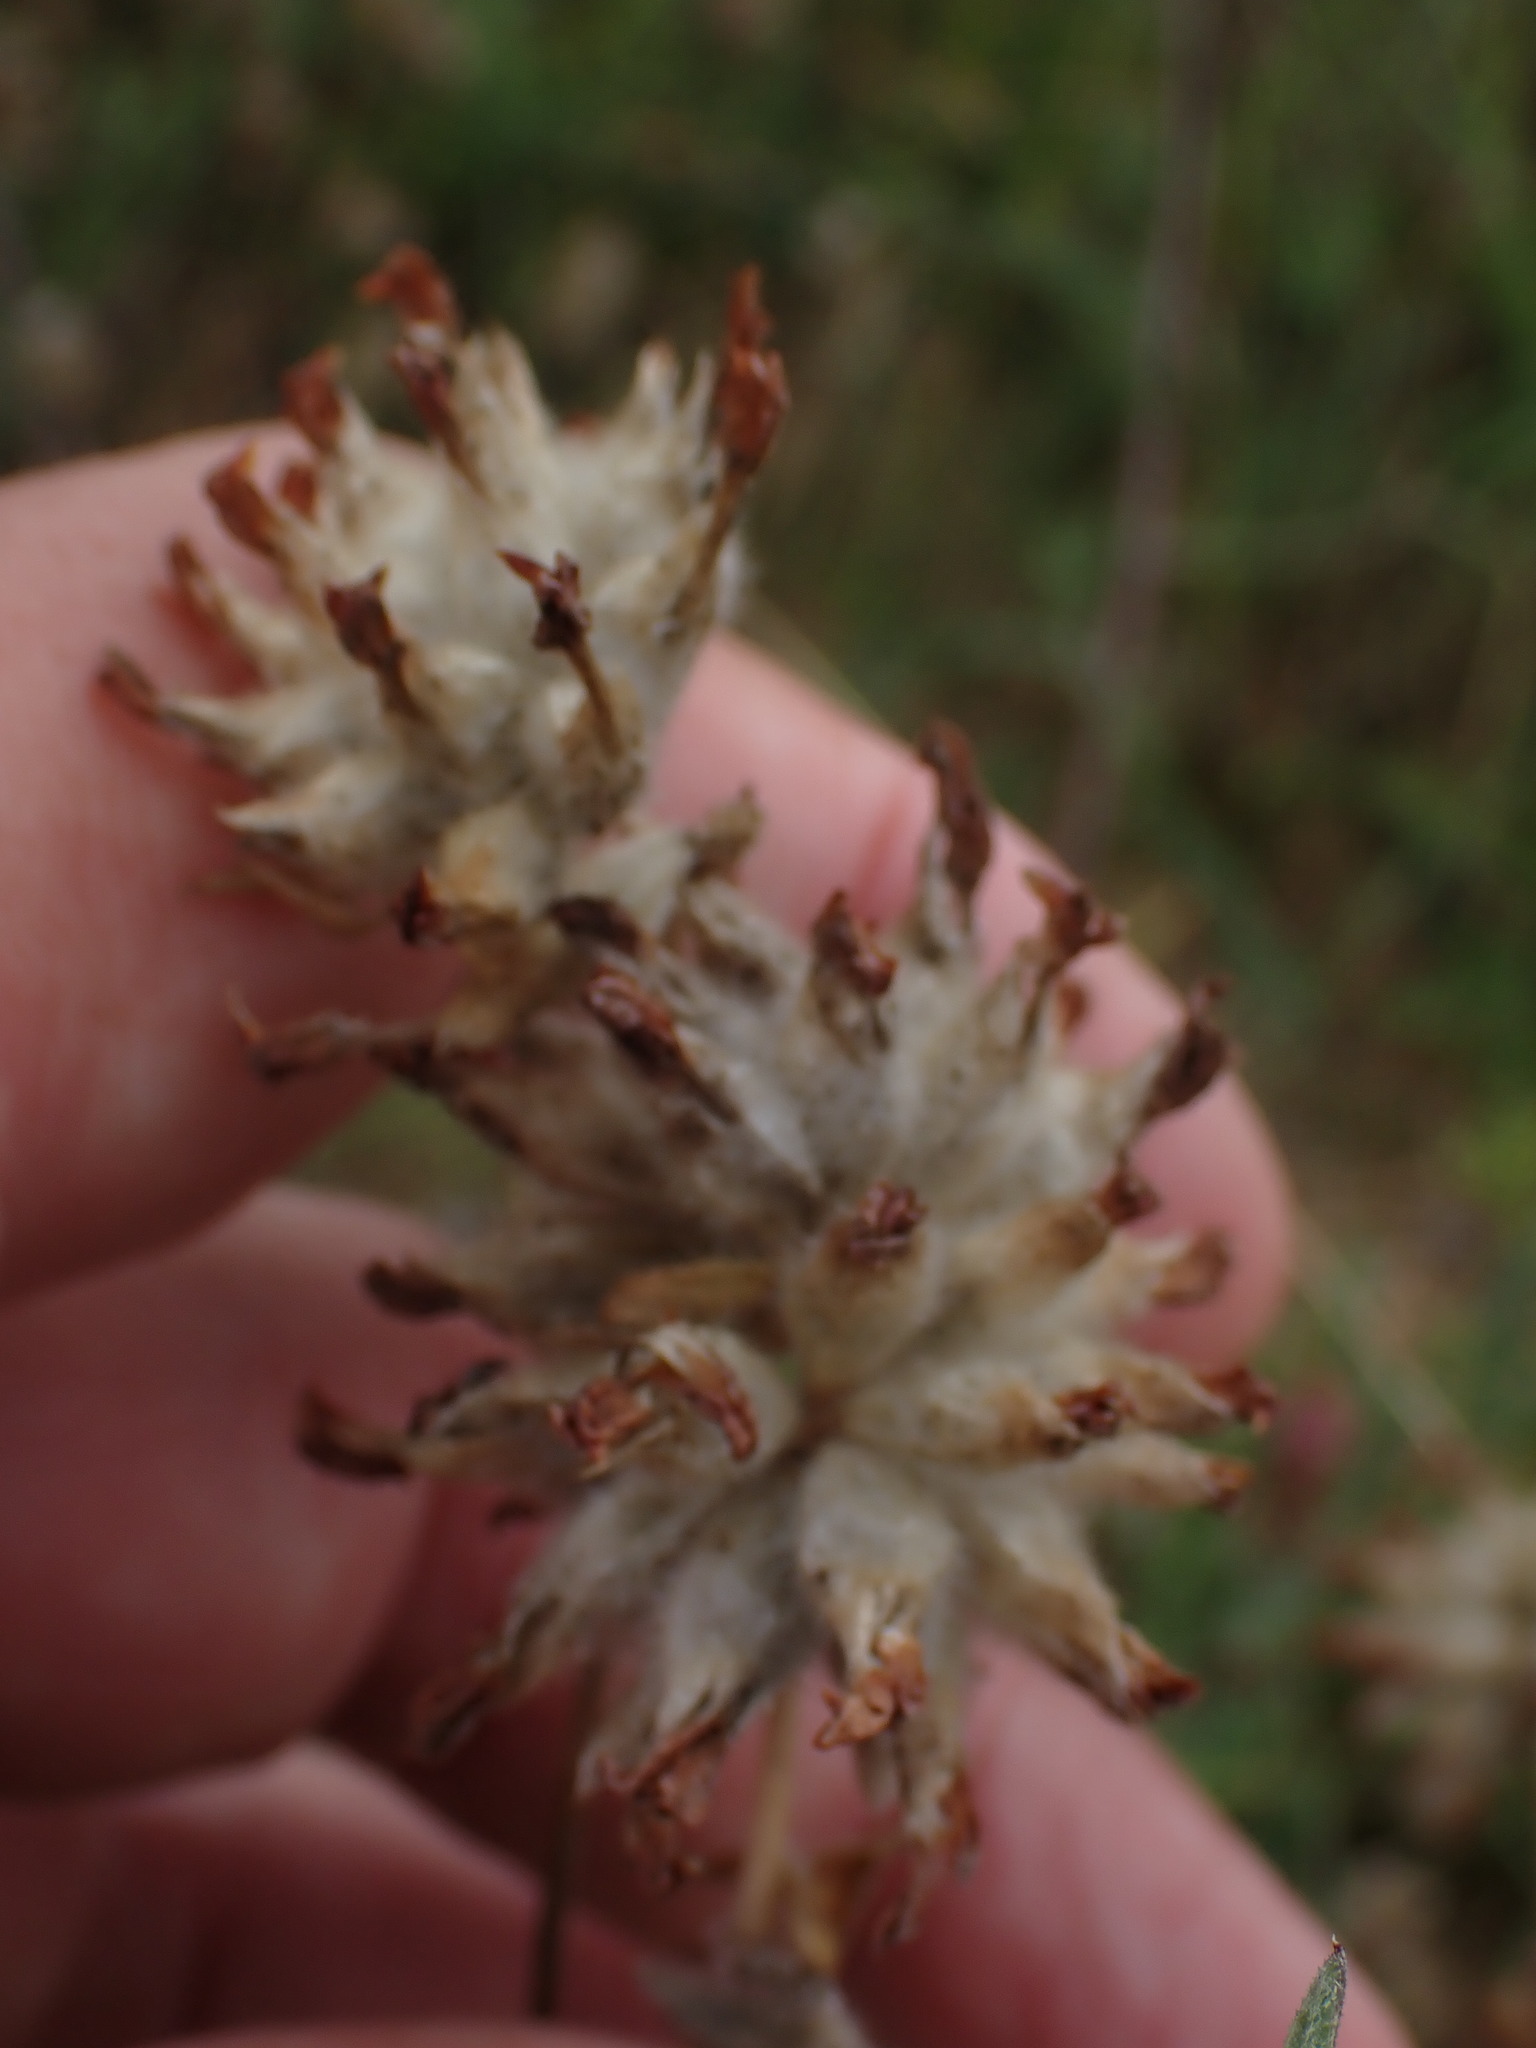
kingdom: Plantae
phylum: Tracheophyta
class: Magnoliopsida
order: Fabales
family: Fabaceae
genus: Anthyllis
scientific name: Anthyllis vulneraria
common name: Kidney vetch
